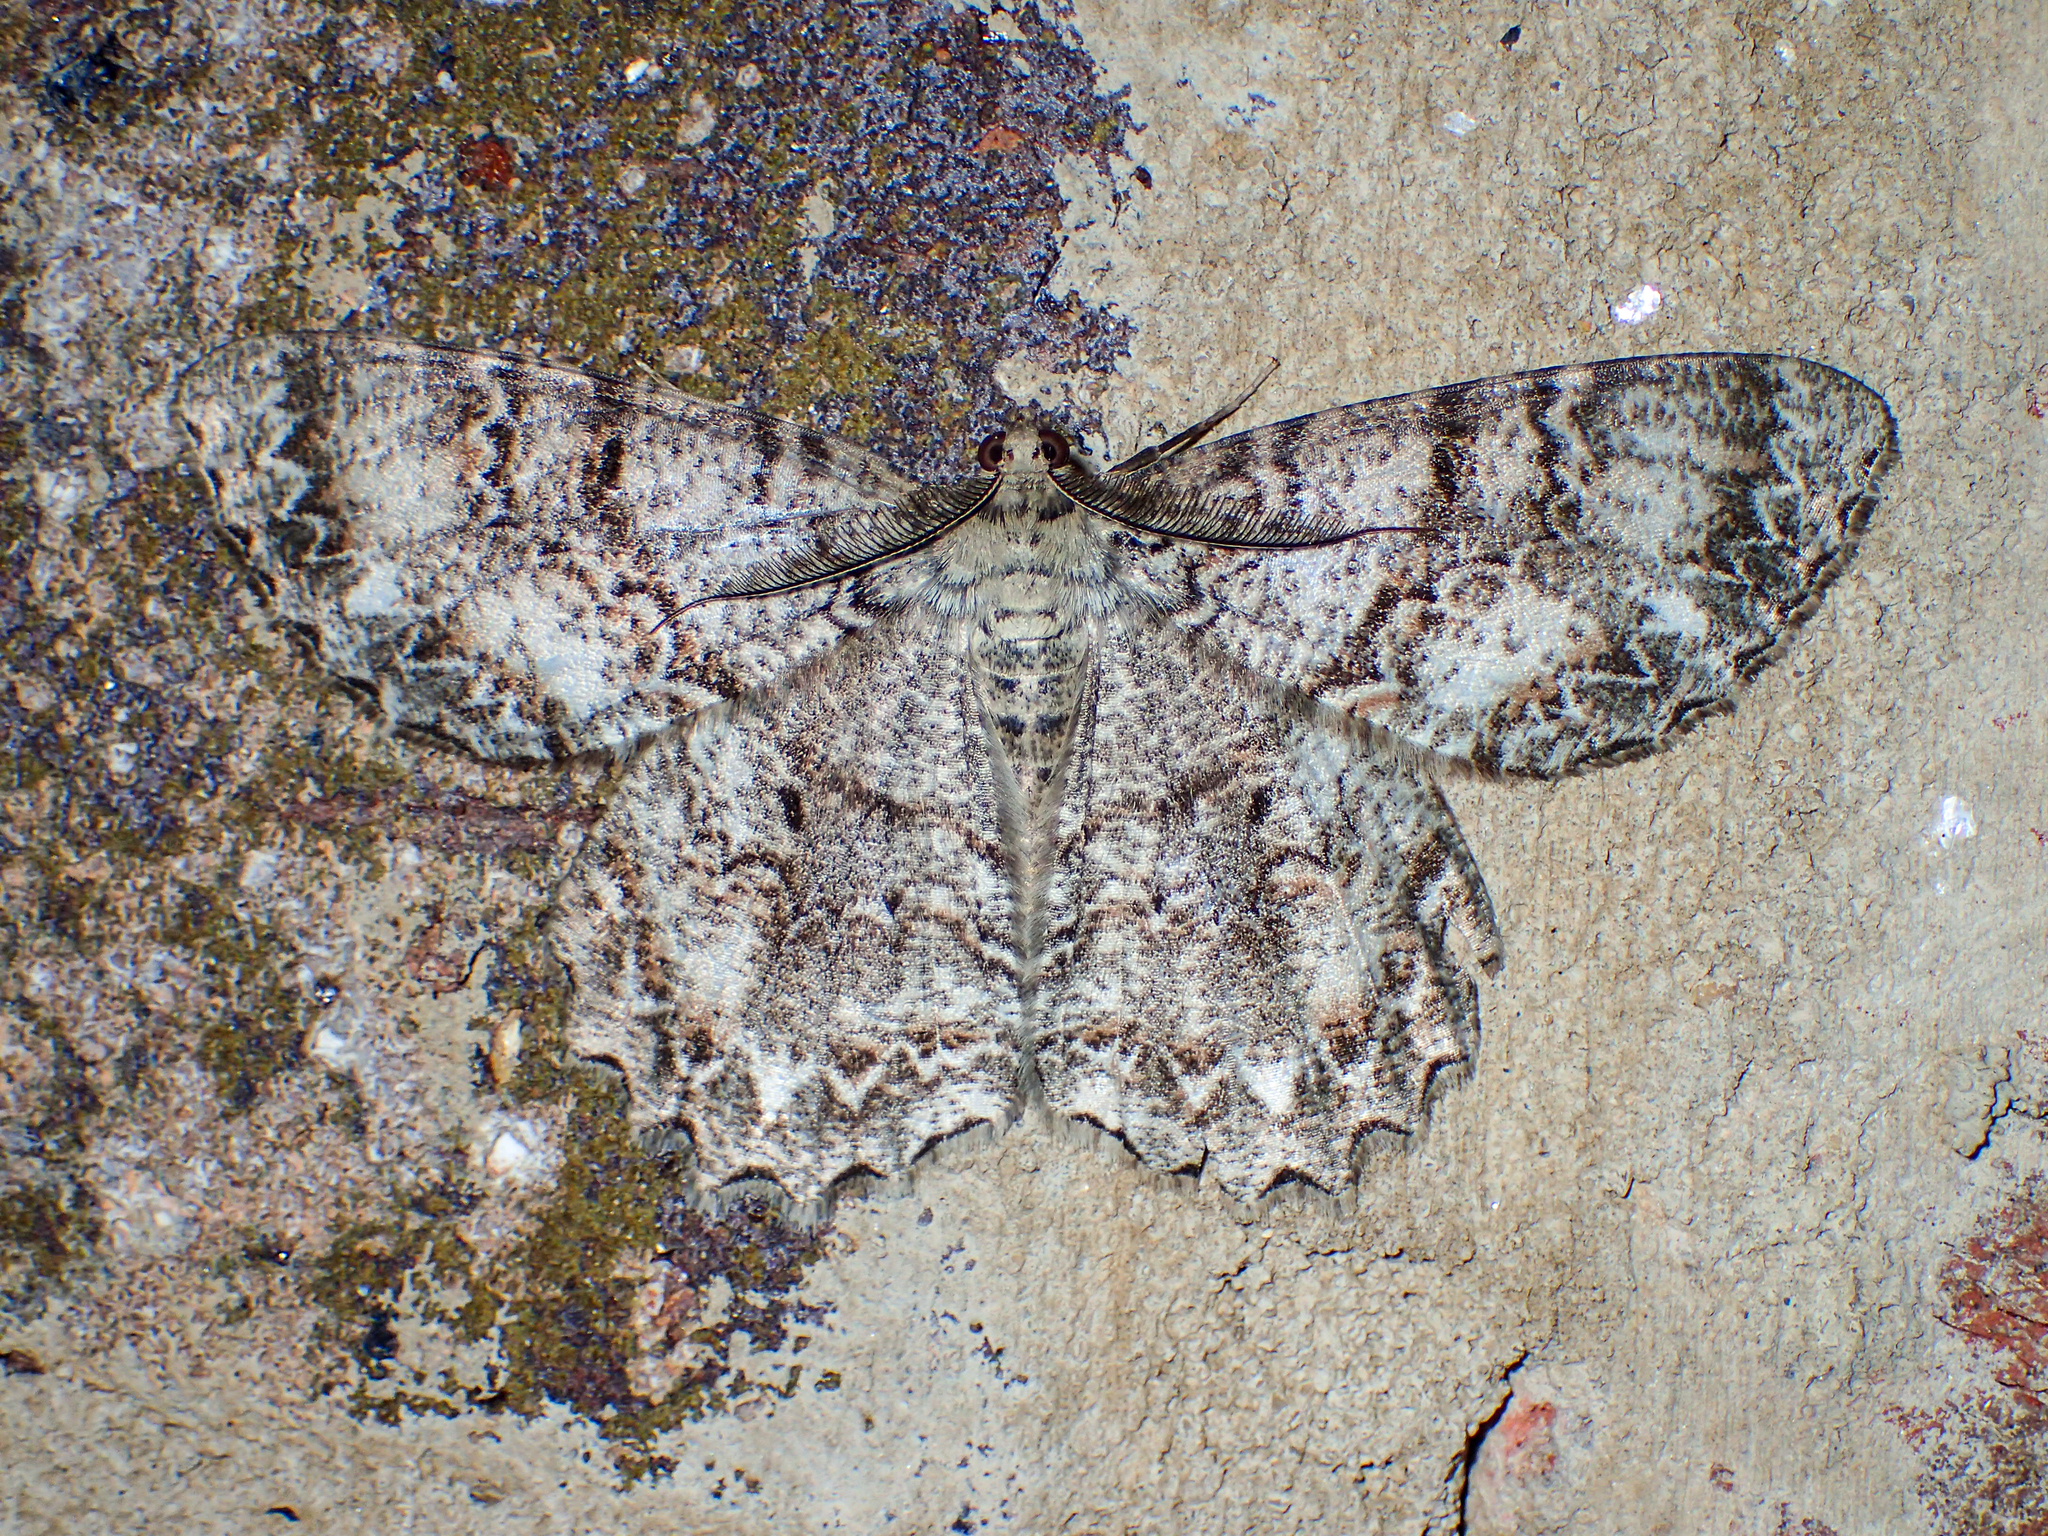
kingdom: Animalia
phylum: Arthropoda
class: Insecta
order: Lepidoptera
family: Geometridae
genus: Epimecis
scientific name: Epimecis hortaria
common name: Tulip-tree beauty
